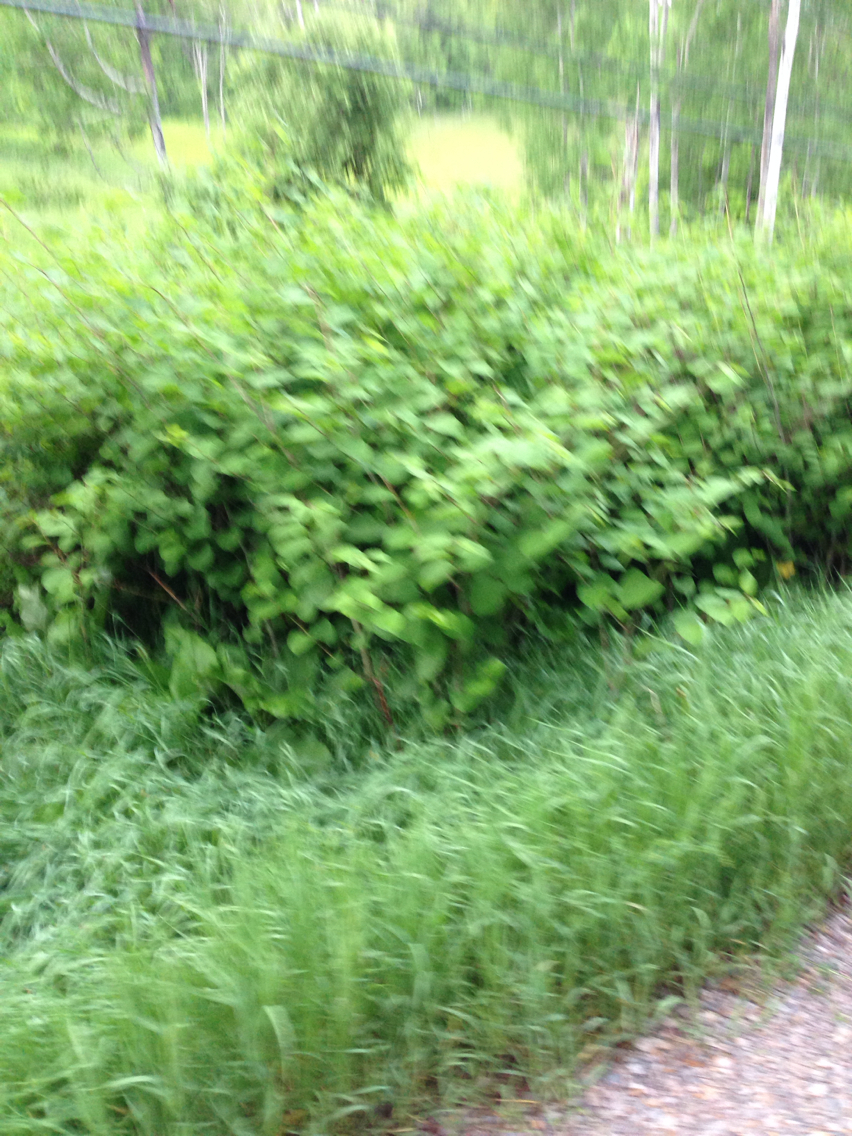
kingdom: Plantae
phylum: Tracheophyta
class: Magnoliopsida
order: Caryophyllales
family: Polygonaceae
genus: Reynoutria
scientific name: Reynoutria japonica
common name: Japanese knotweed
